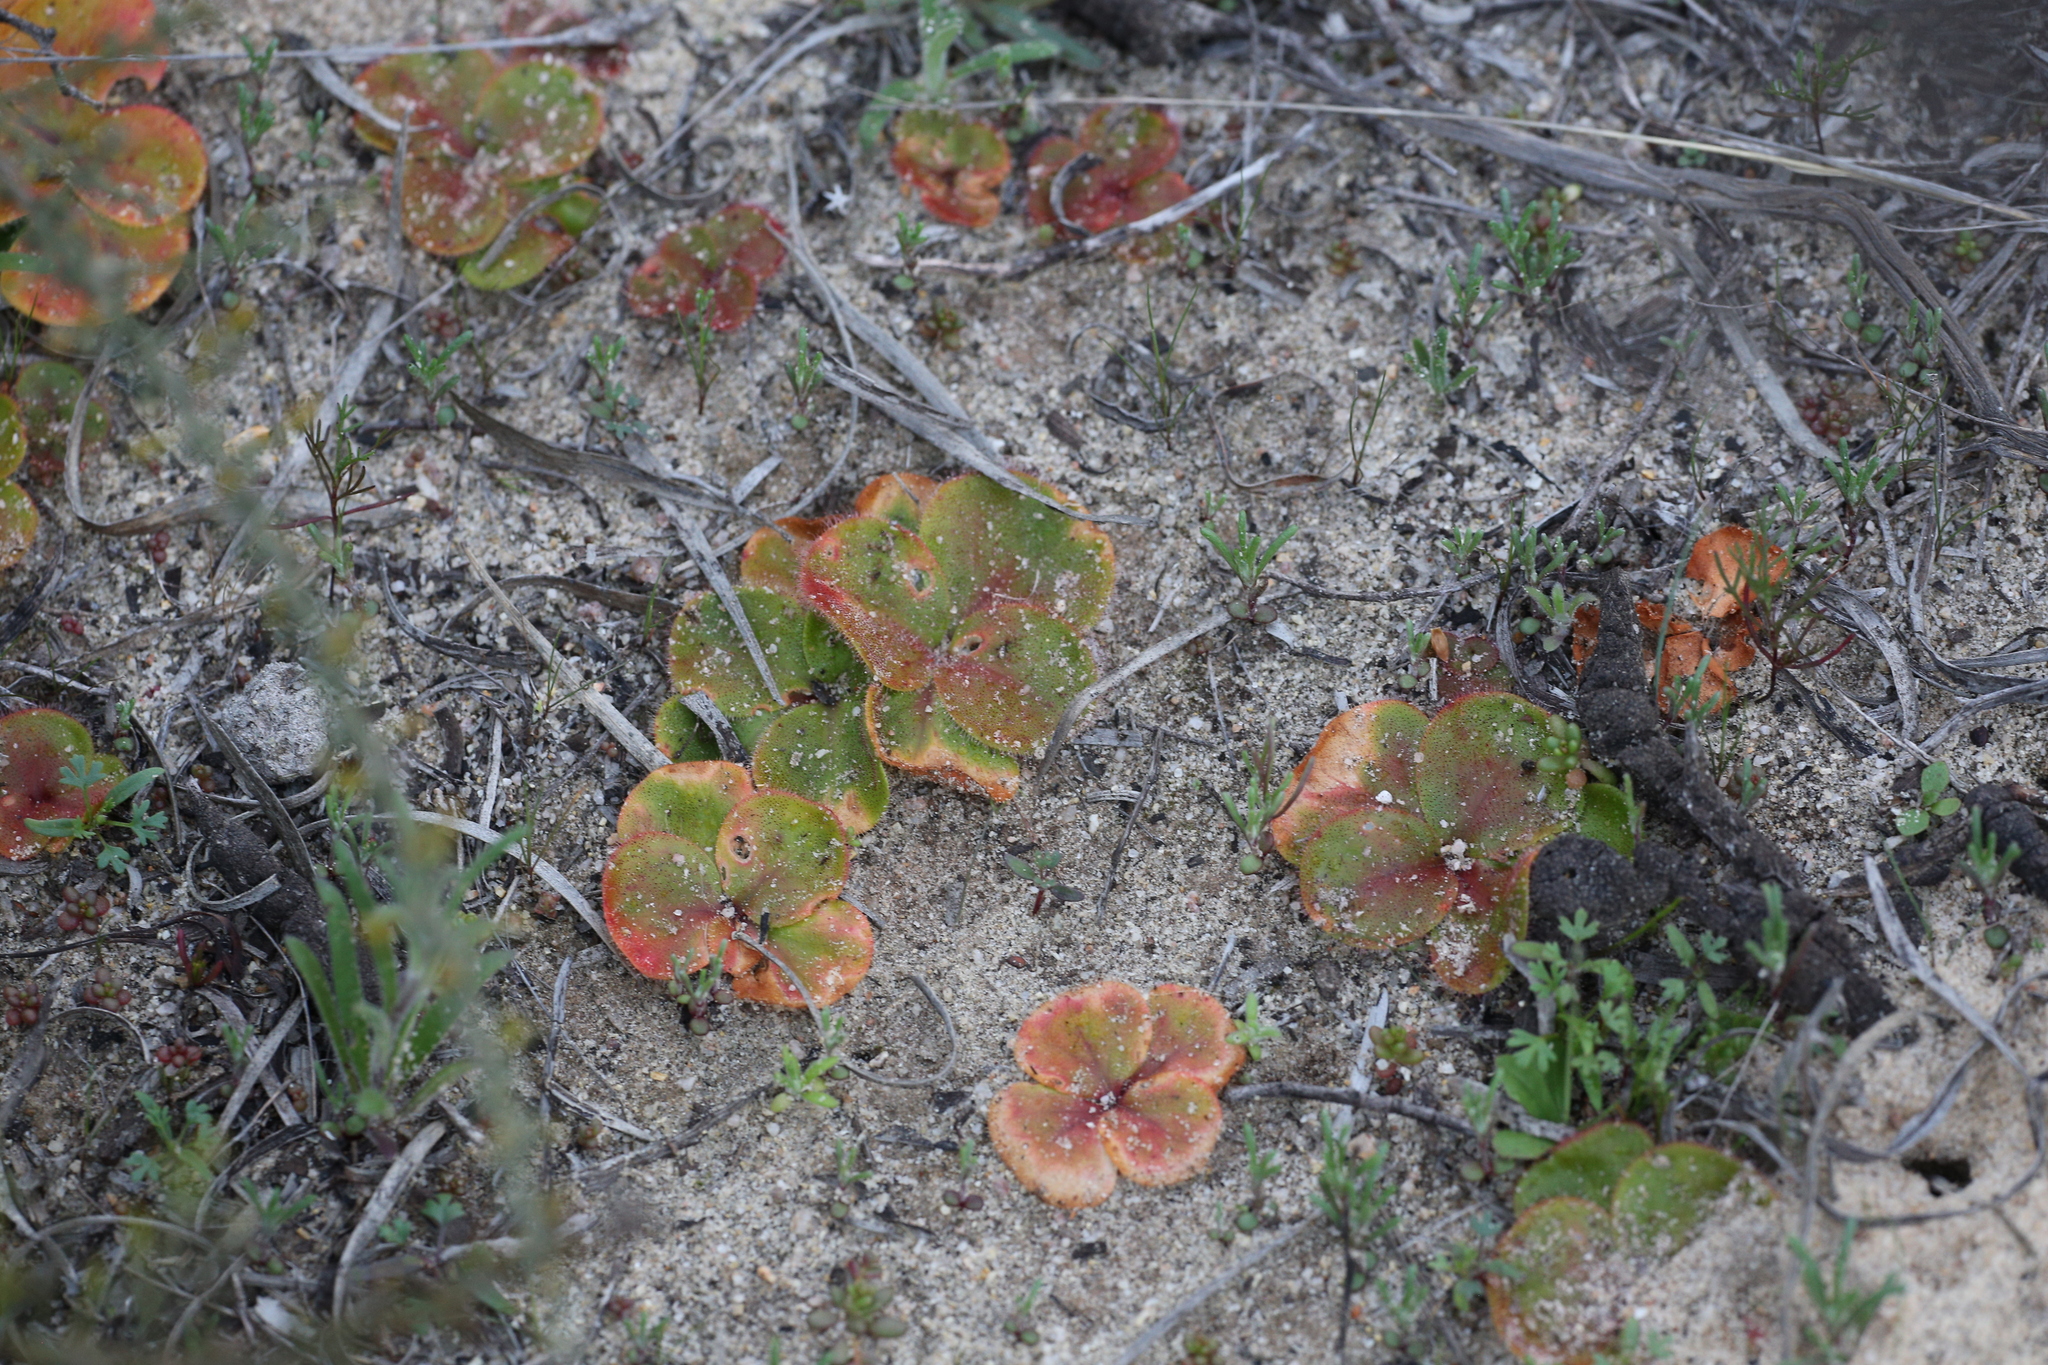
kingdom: Plantae
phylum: Tracheophyta
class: Magnoliopsida
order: Caryophyllales
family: Droseraceae
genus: Drosera
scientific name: Drosera erythrorhiza
